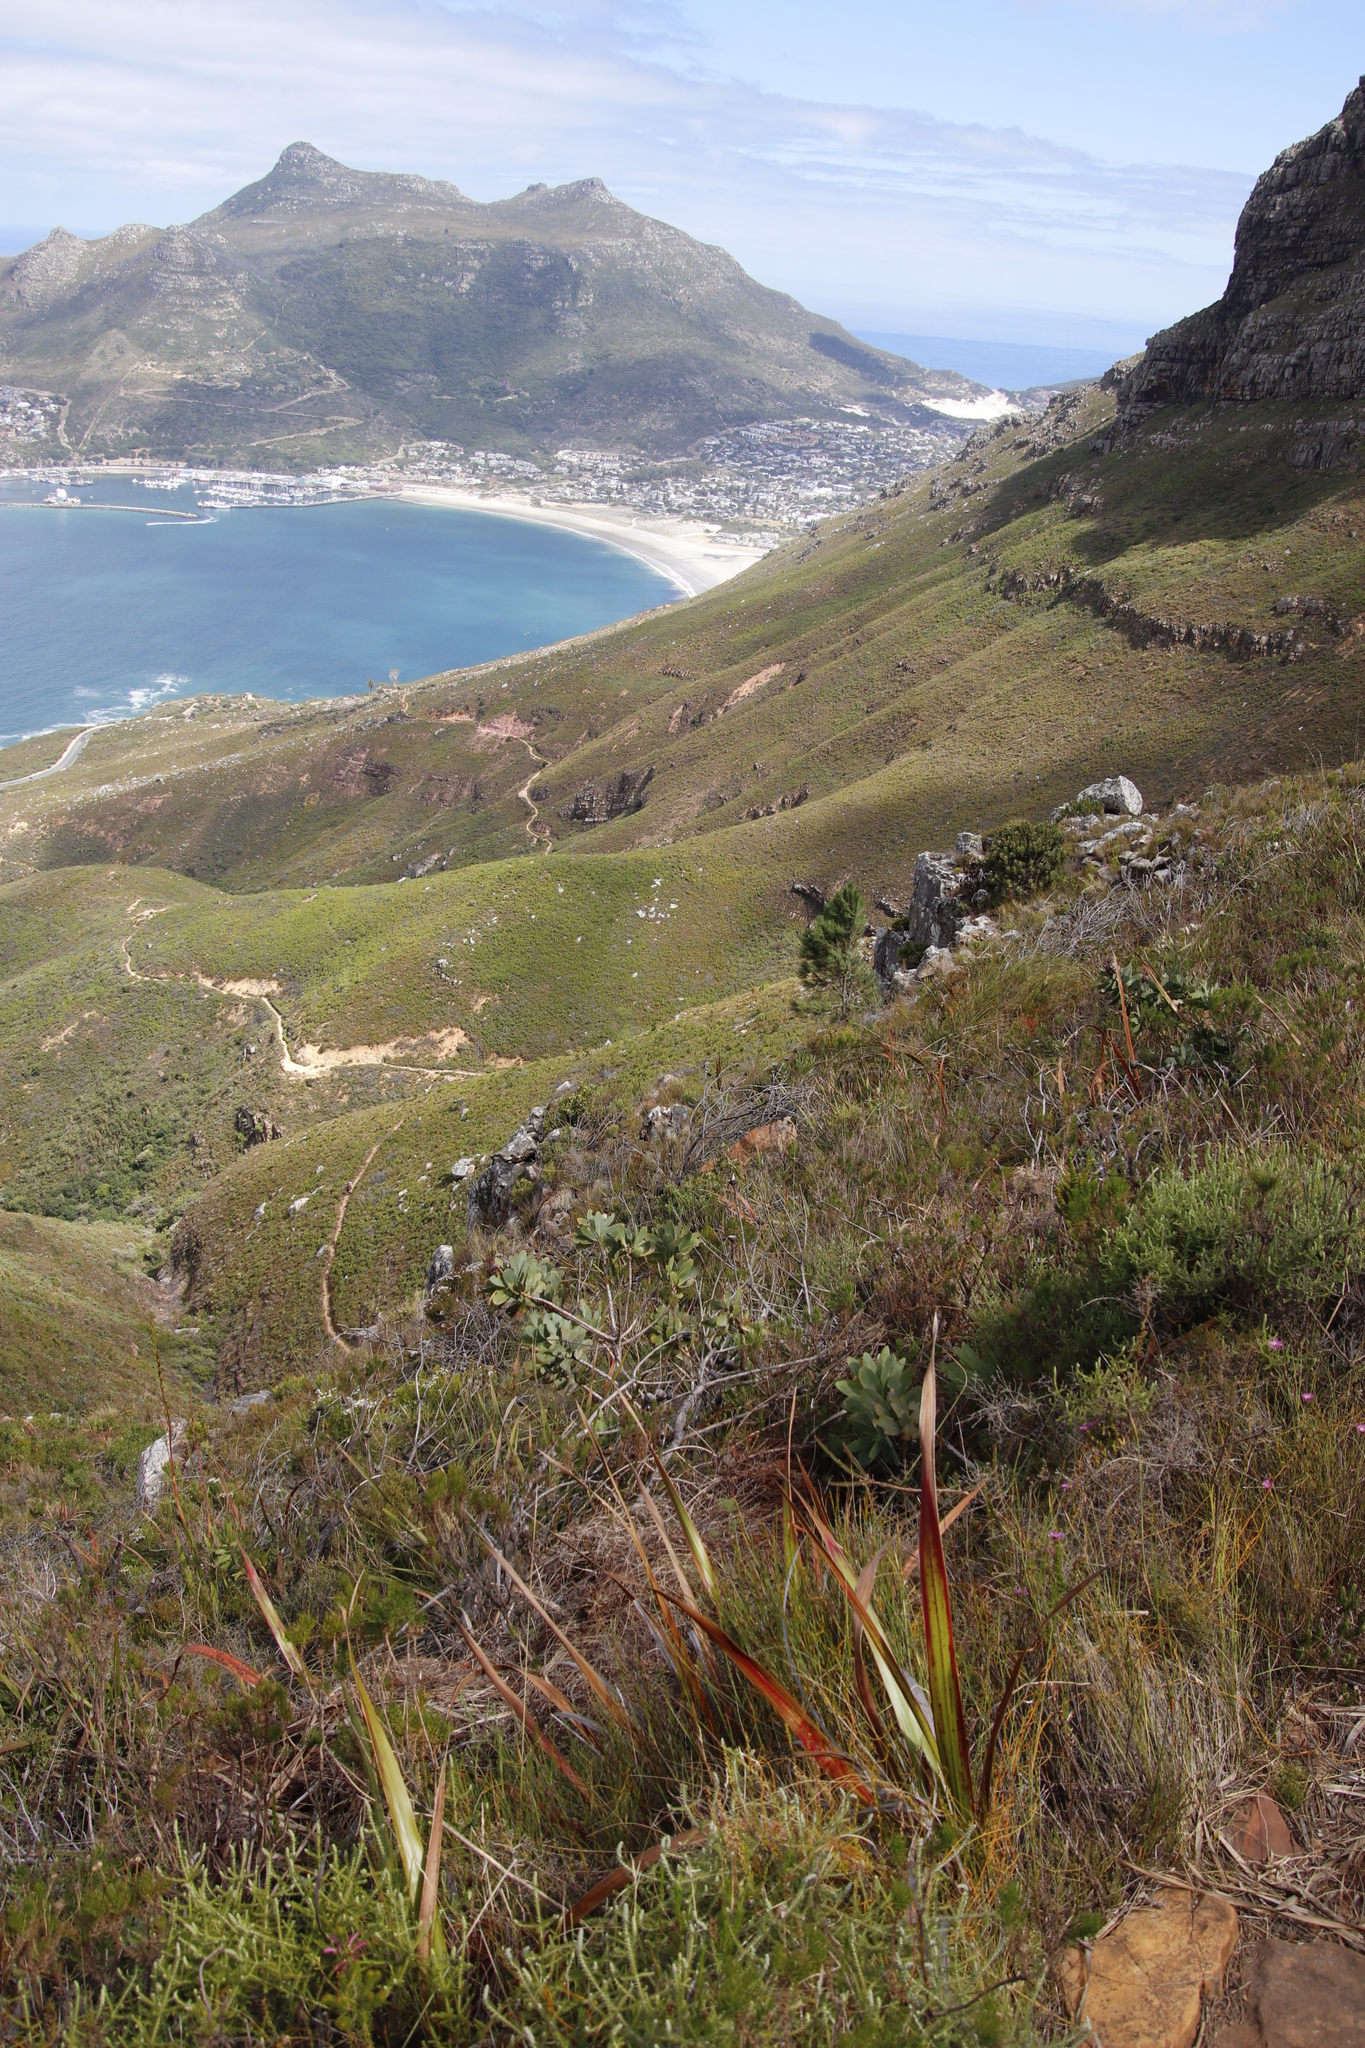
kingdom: Plantae
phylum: Tracheophyta
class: Magnoliopsida
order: Proteales
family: Proteaceae
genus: Protea
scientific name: Protea nitida
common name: Tree protea
